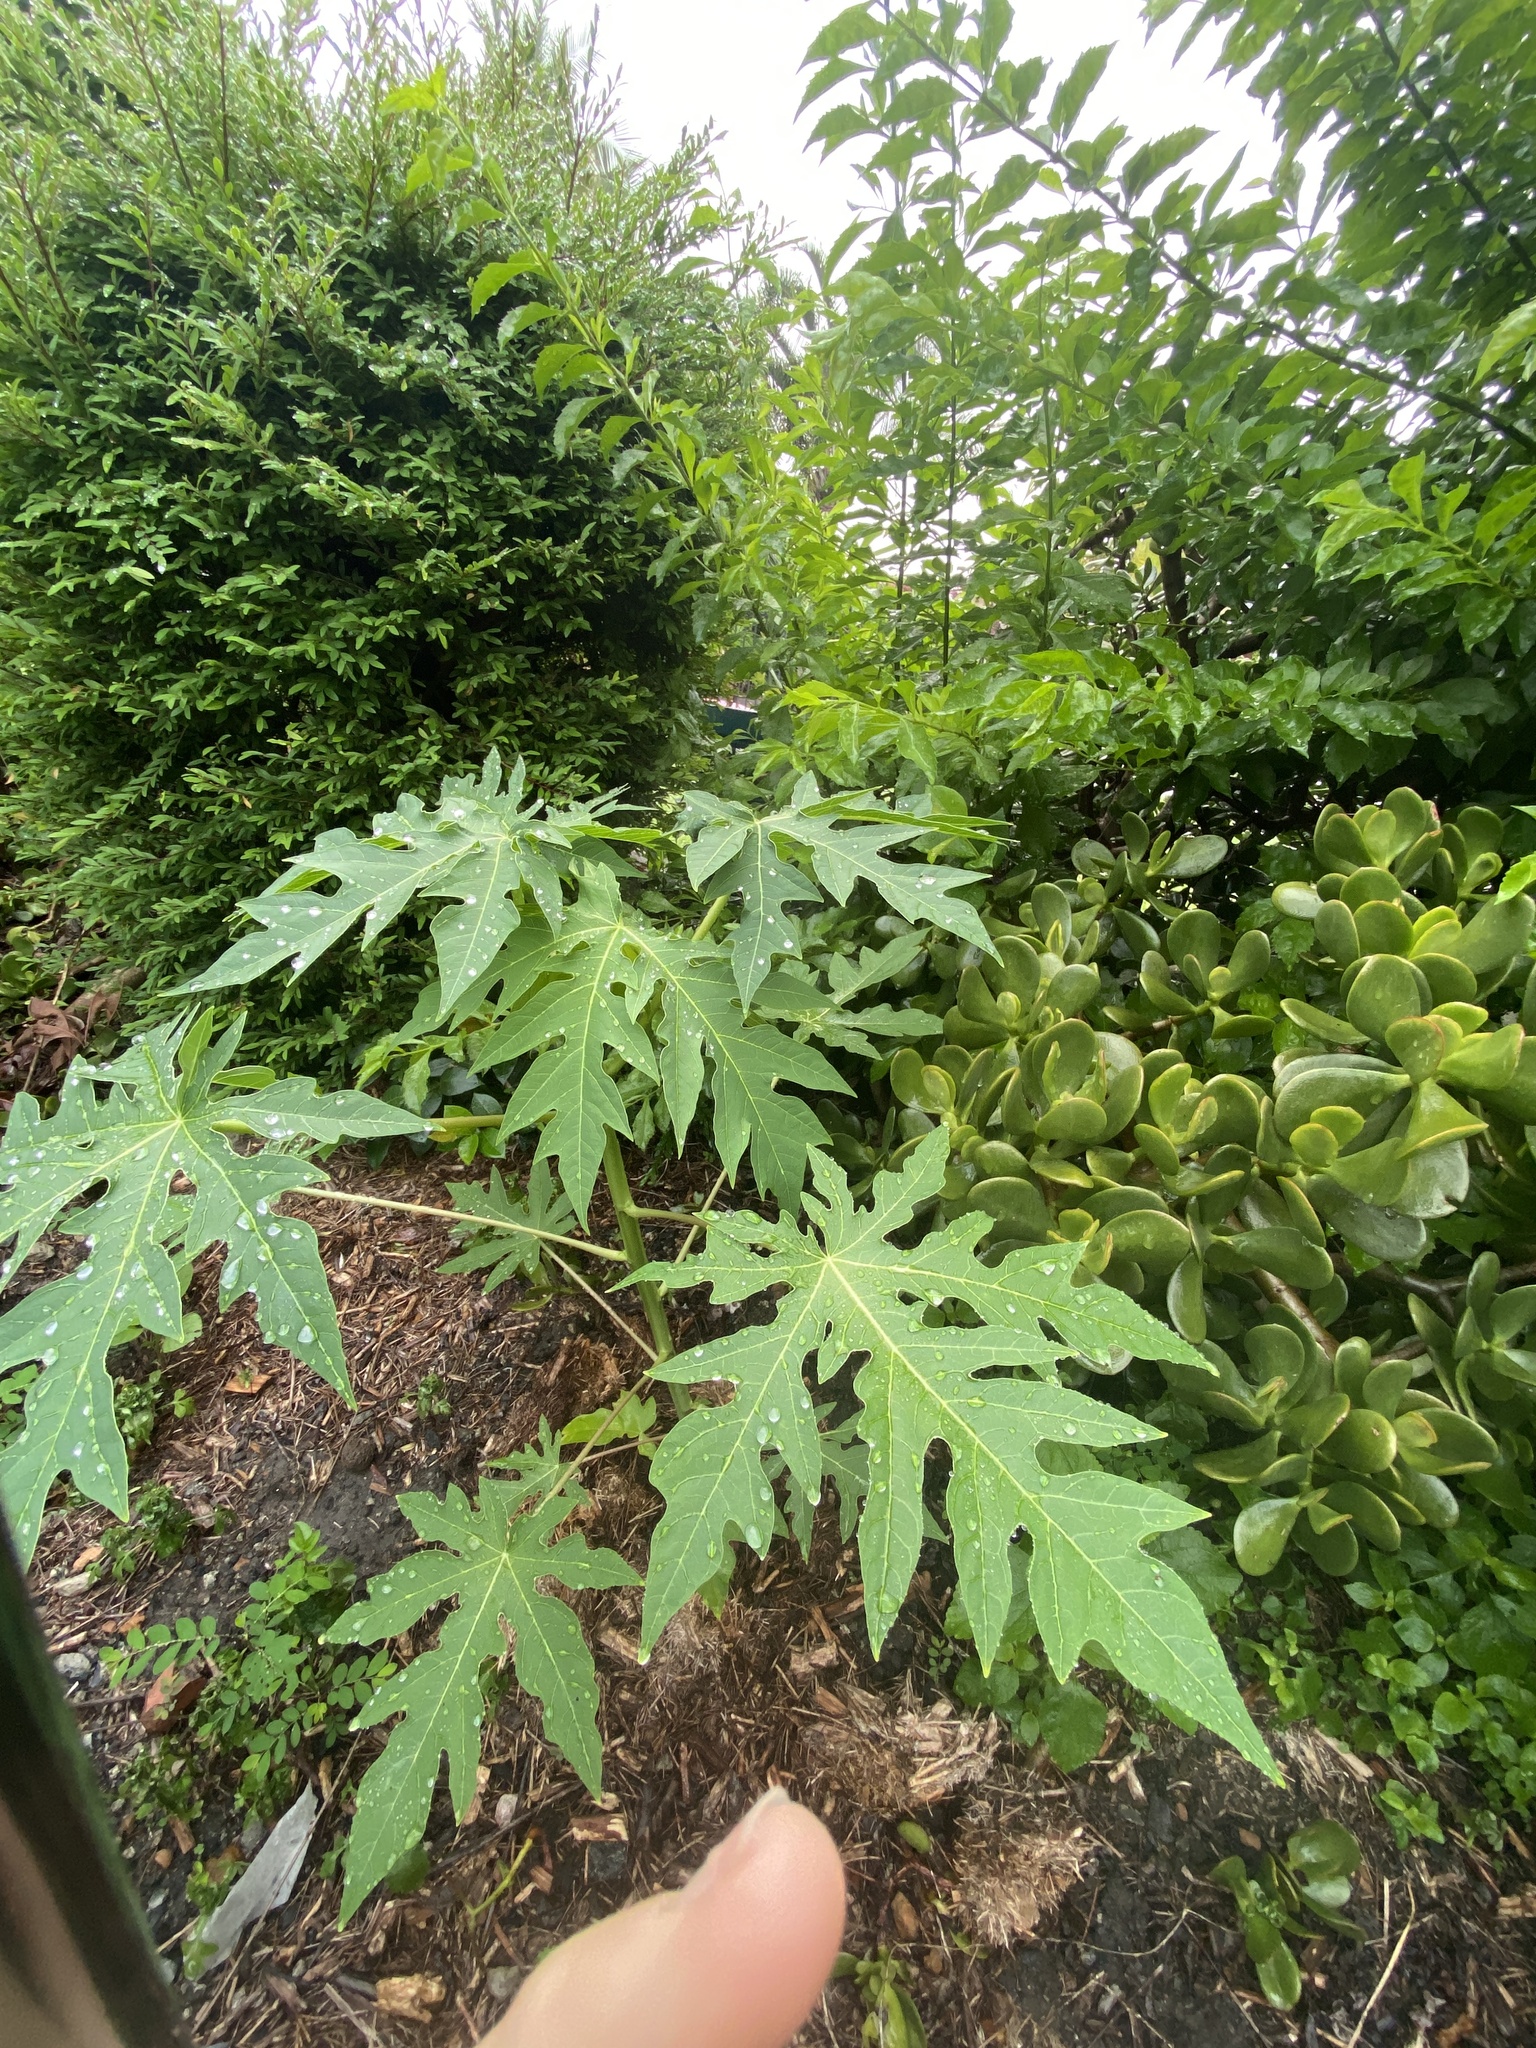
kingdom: Plantae
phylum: Tracheophyta
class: Magnoliopsida
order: Brassicales
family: Caricaceae
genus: Carica
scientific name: Carica papaya
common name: Papaya
